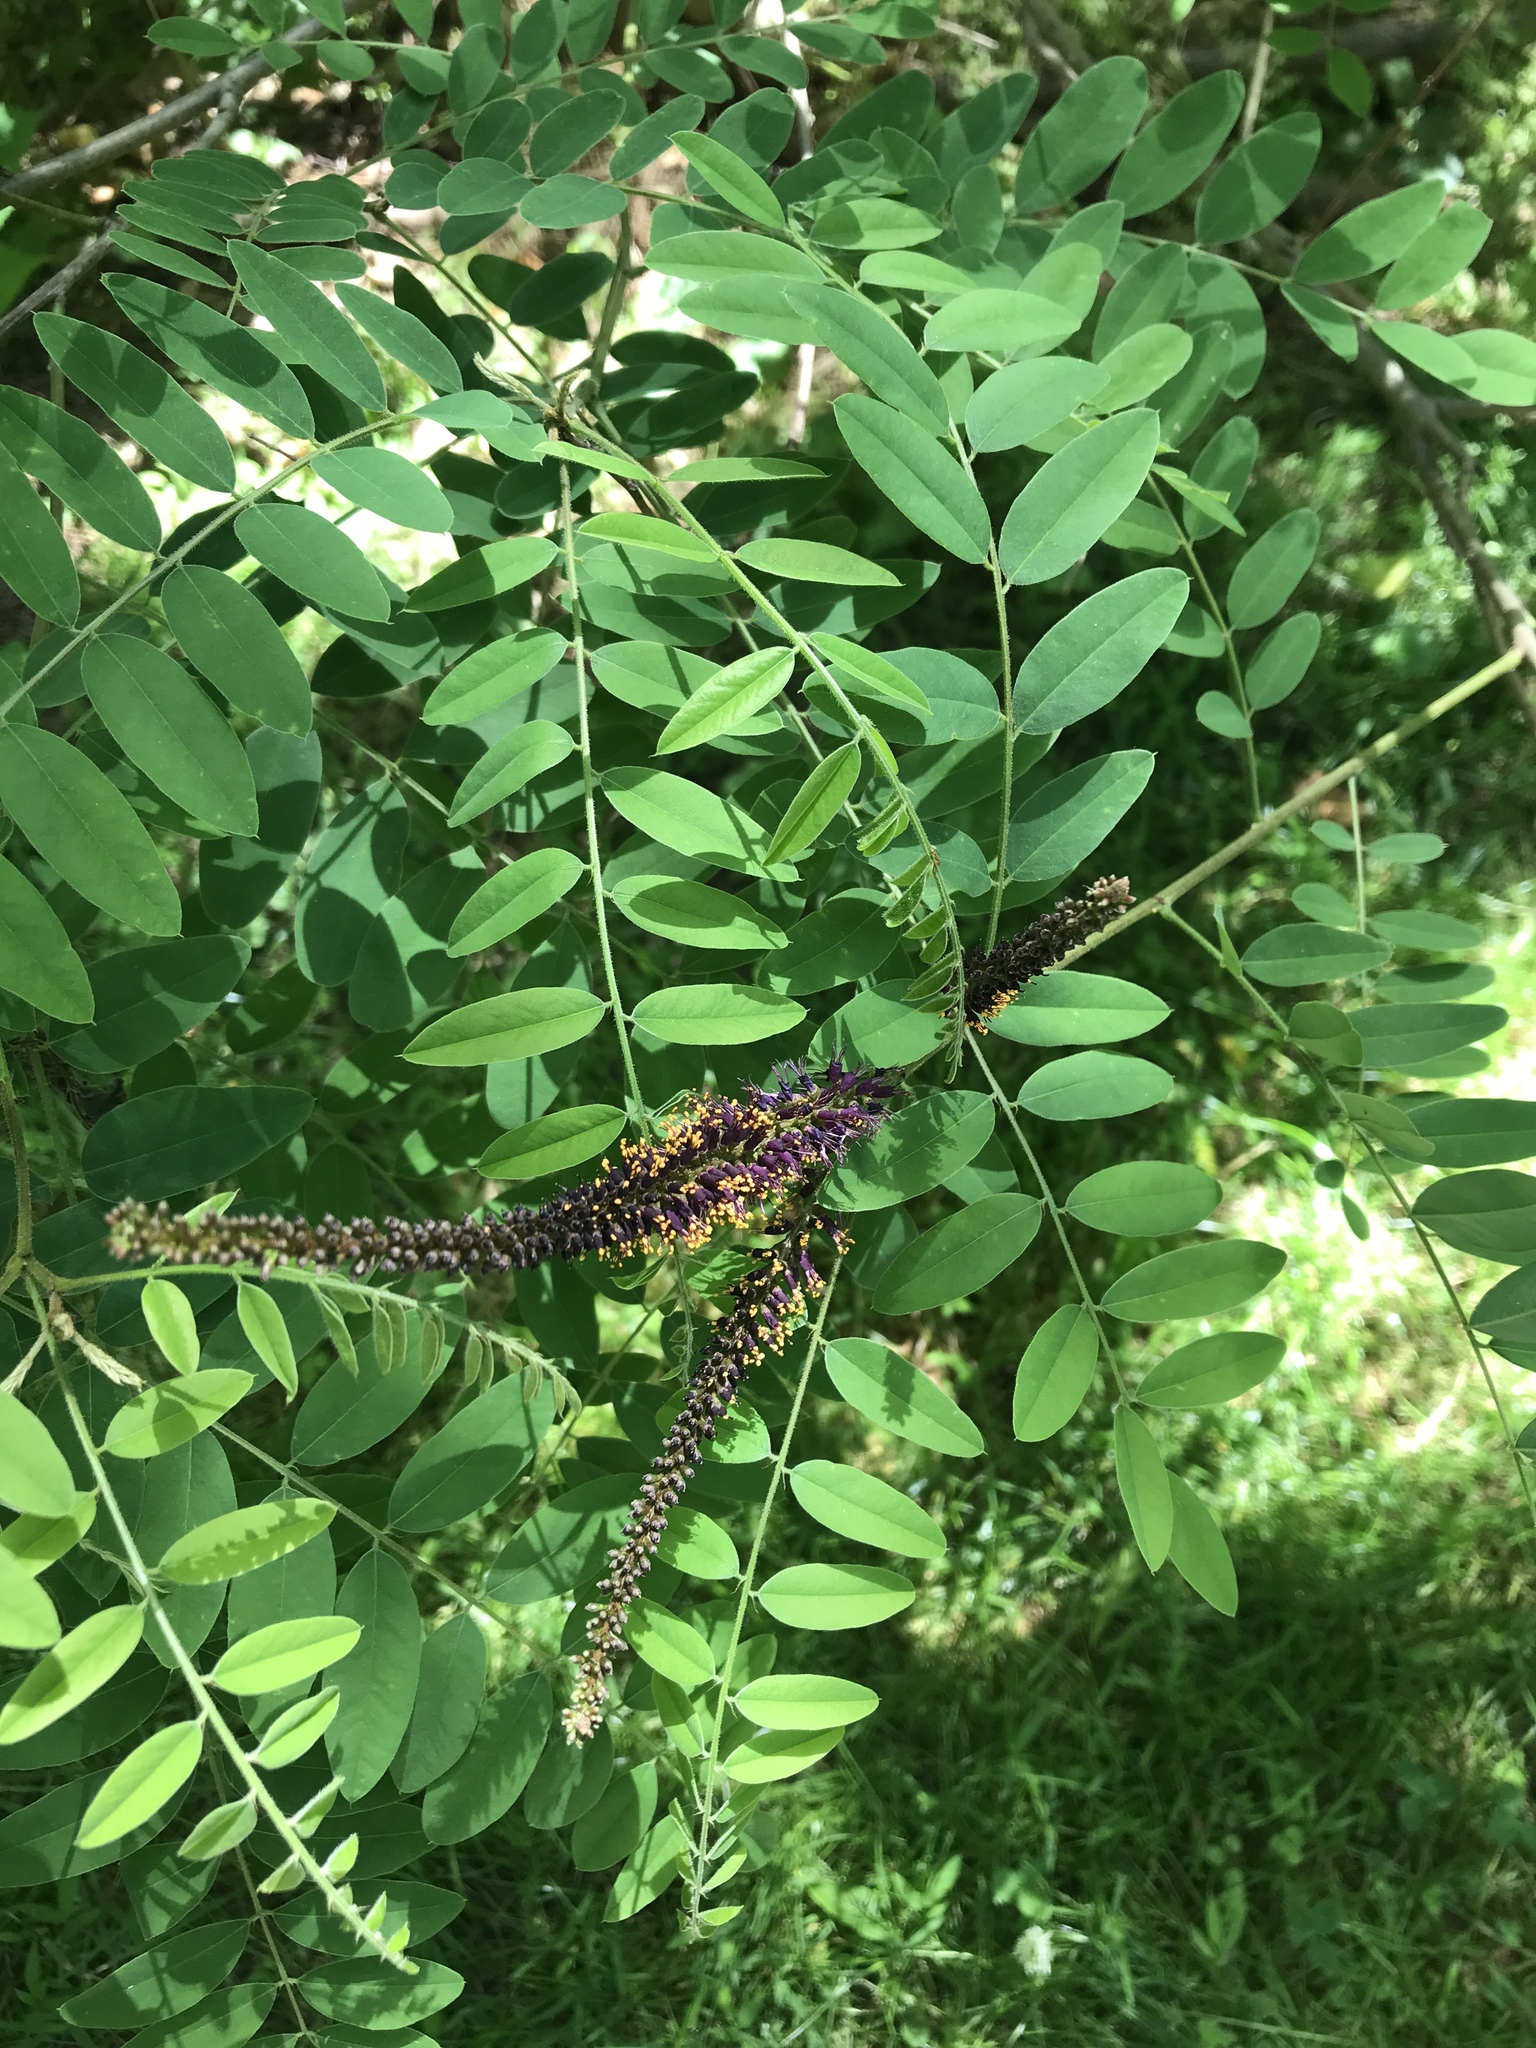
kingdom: Plantae
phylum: Tracheophyta
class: Magnoliopsida
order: Fabales
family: Fabaceae
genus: Amorpha
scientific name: Amorpha fruticosa
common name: False indigo
